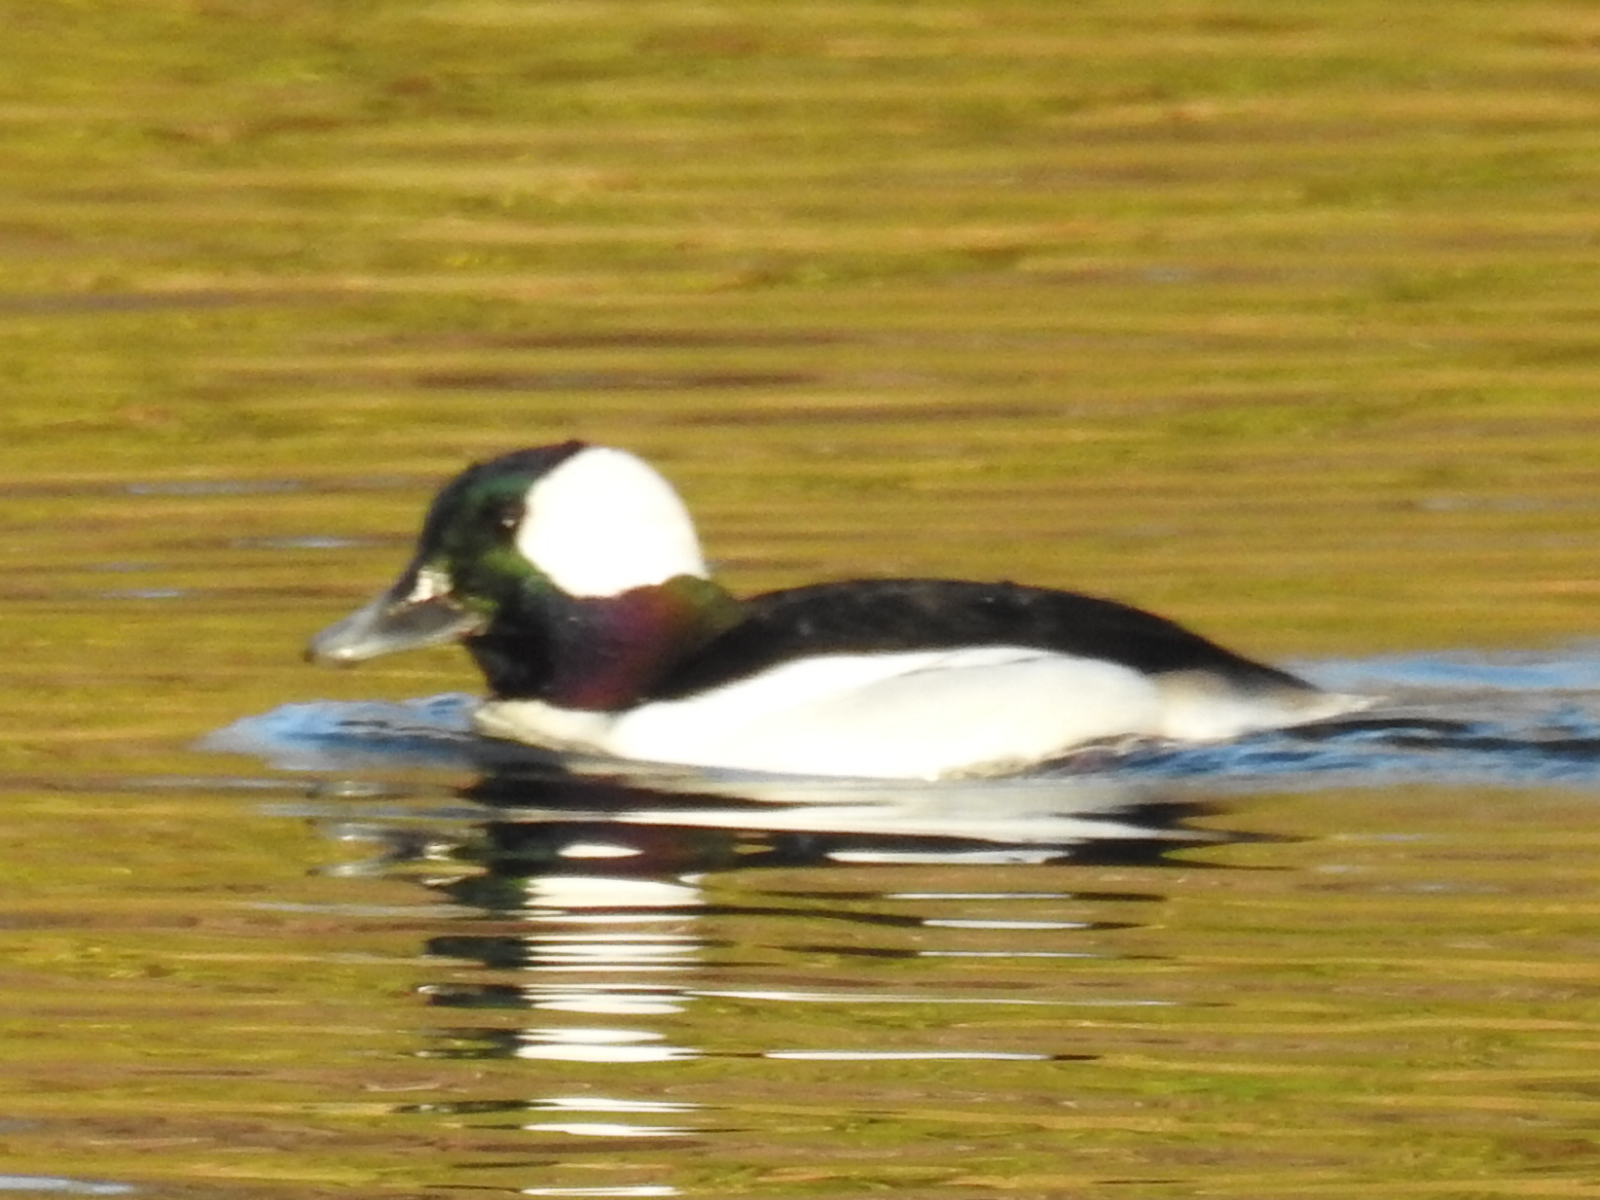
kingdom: Animalia
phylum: Chordata
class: Aves
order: Anseriformes
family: Anatidae
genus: Bucephala
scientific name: Bucephala albeola
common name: Bufflehead
